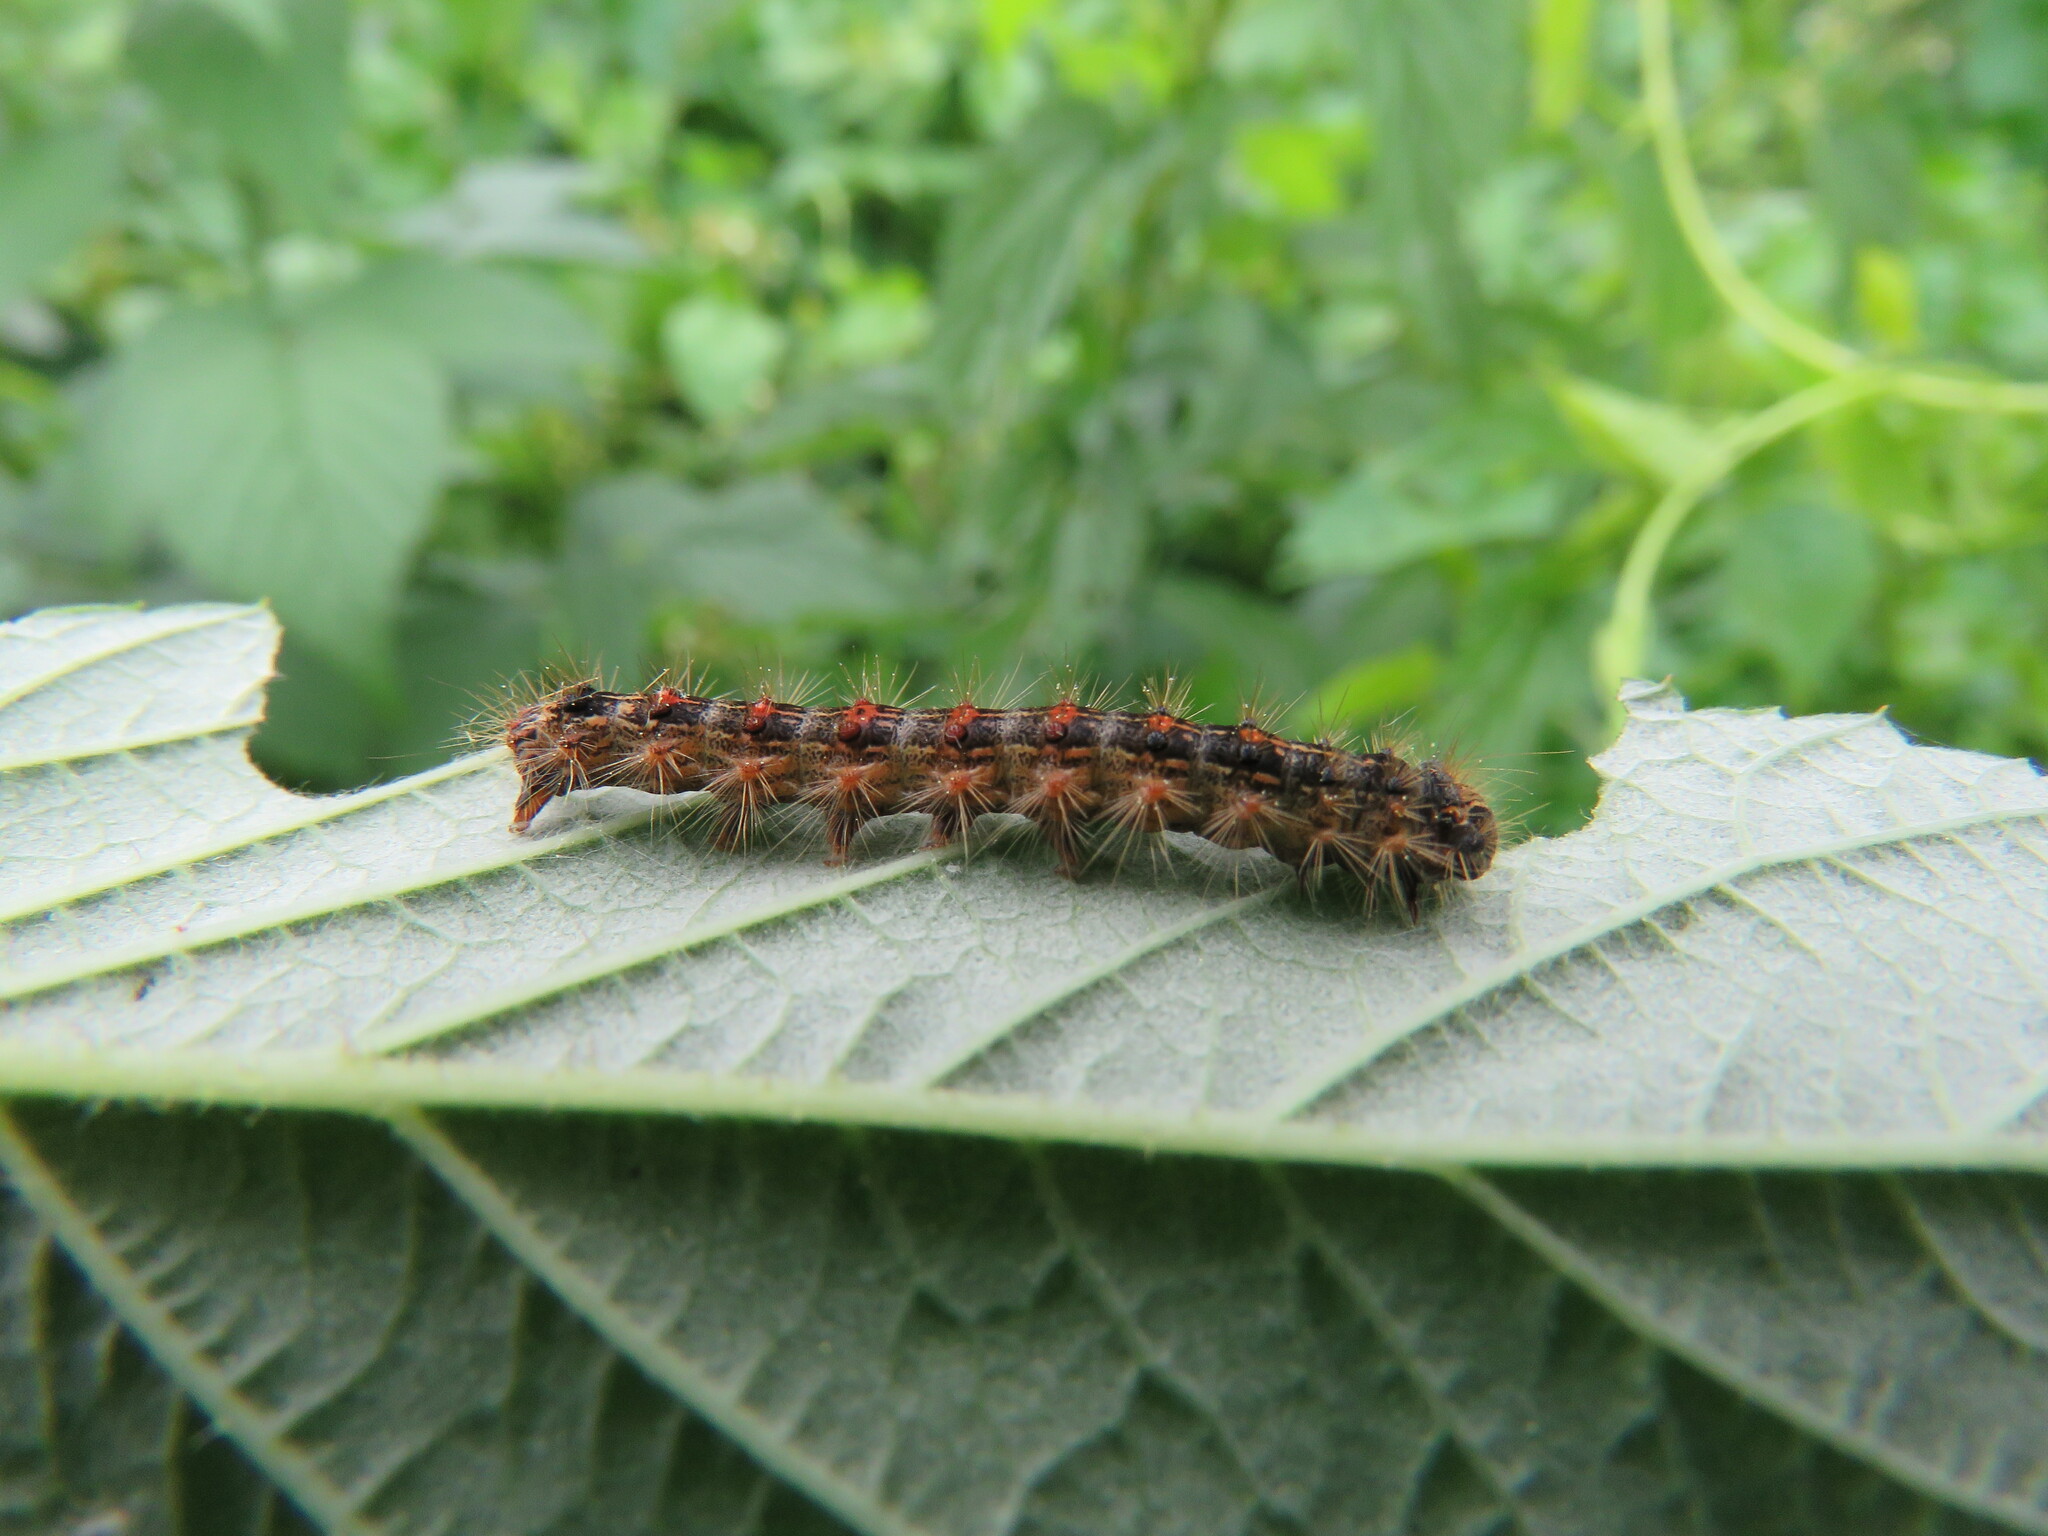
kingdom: Animalia
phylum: Arthropoda
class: Insecta
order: Lepidoptera
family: Erebidae
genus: Lymantria
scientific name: Lymantria dispar
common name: Gypsy moth
